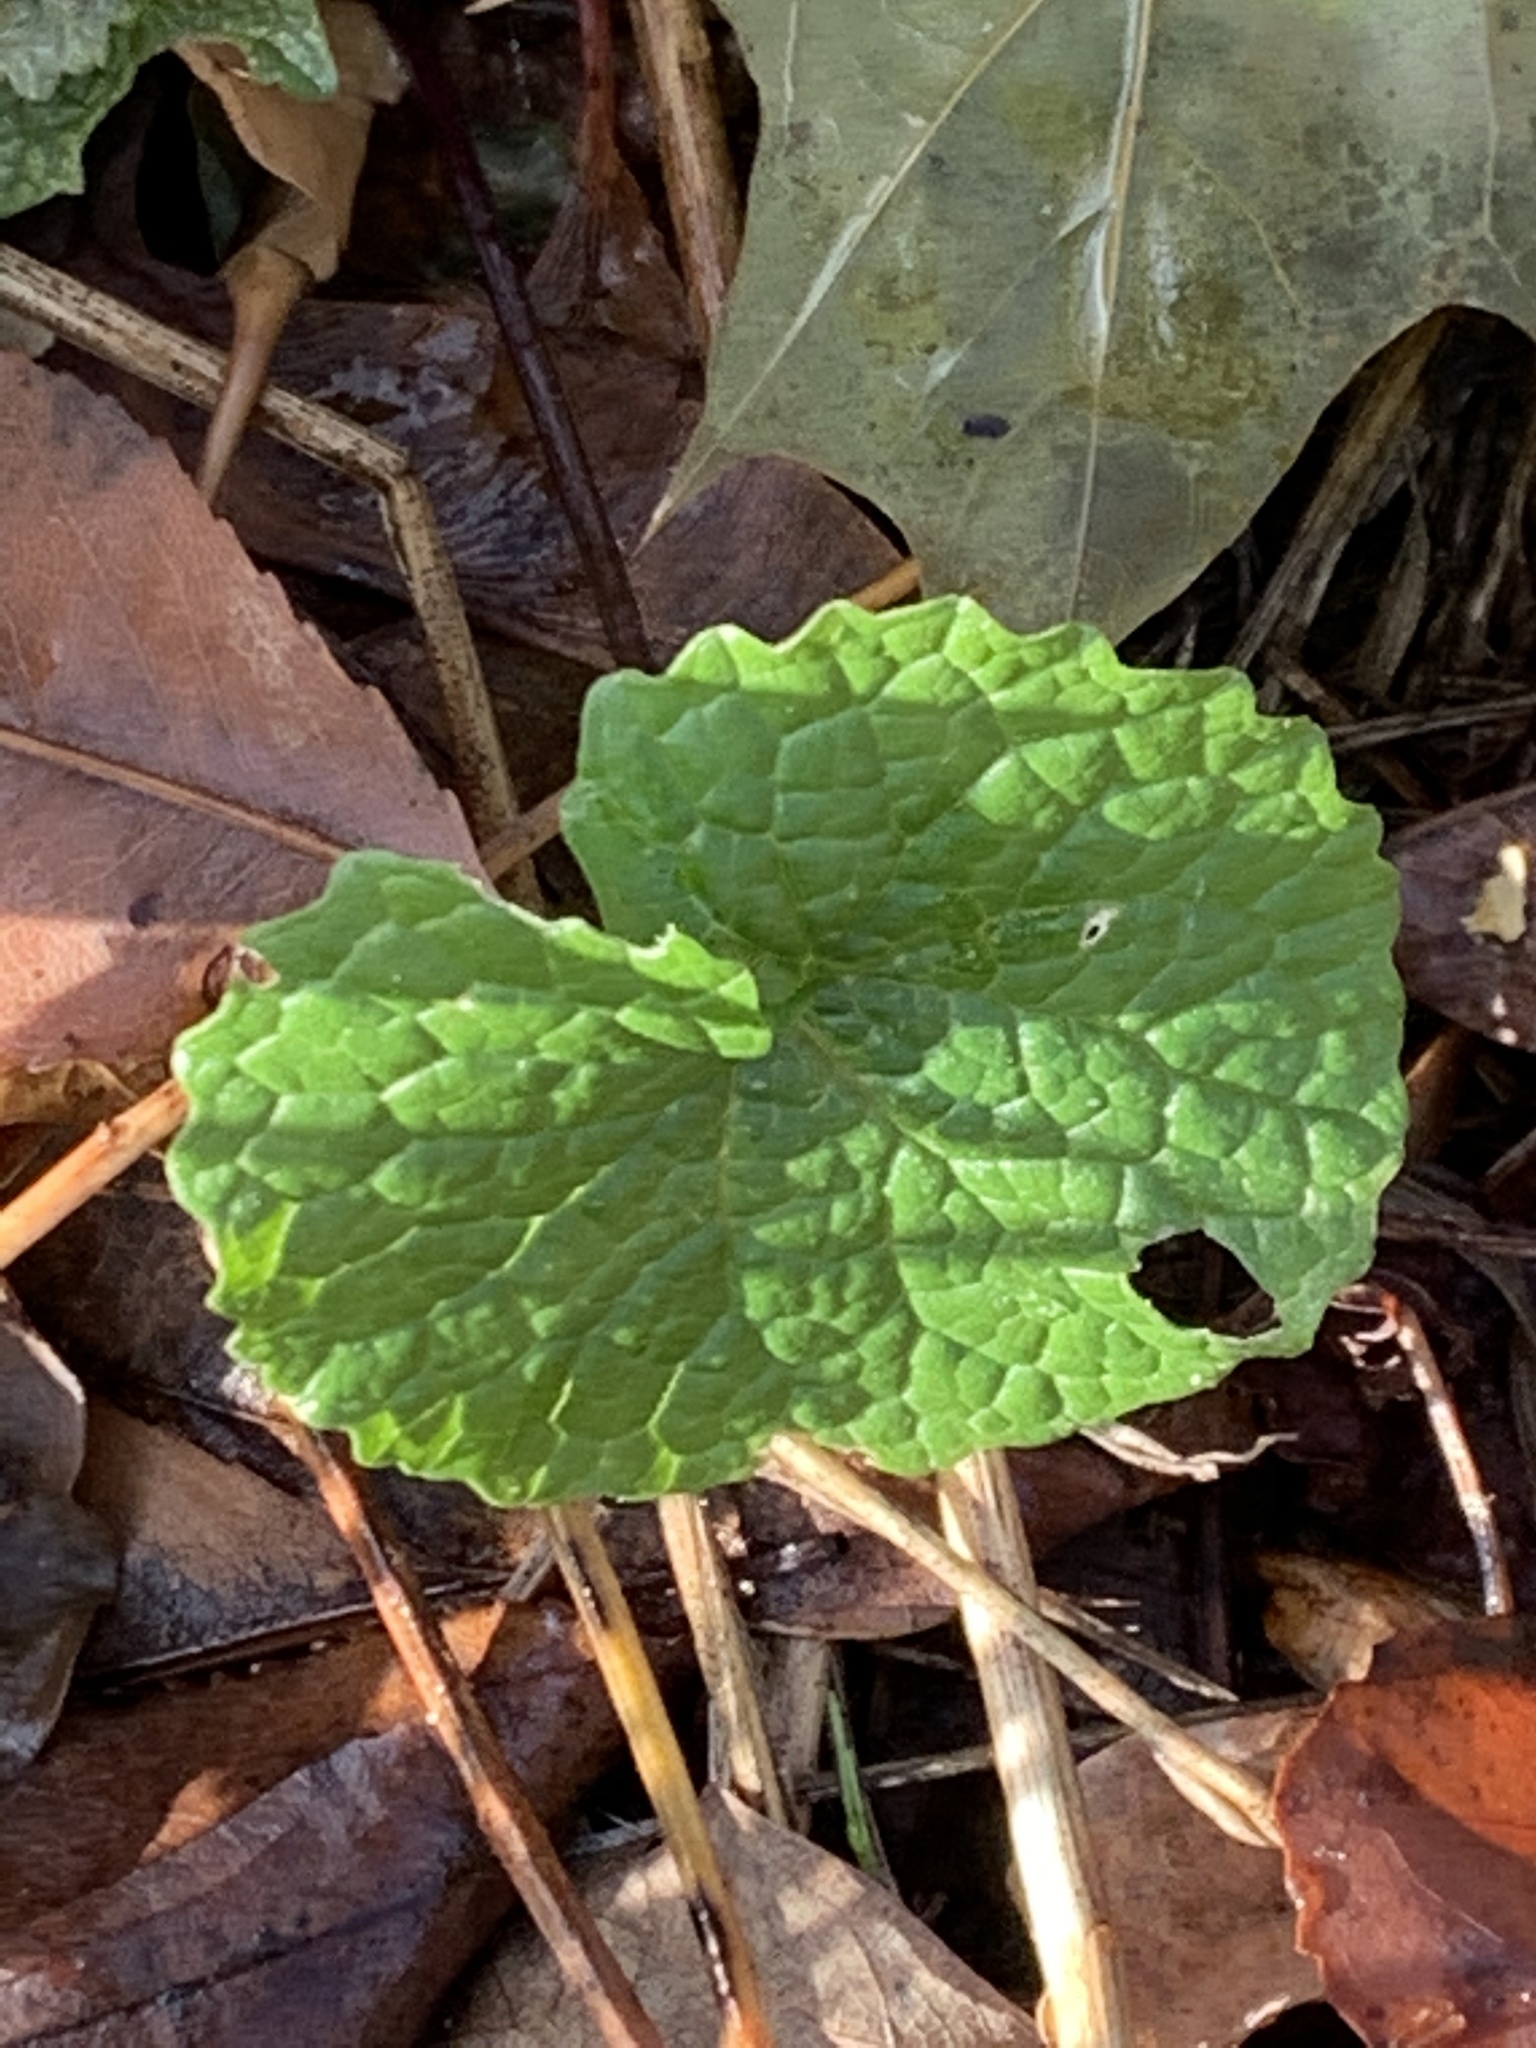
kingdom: Plantae
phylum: Tracheophyta
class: Magnoliopsida
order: Brassicales
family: Brassicaceae
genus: Alliaria
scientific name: Alliaria petiolata
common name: Garlic mustard
